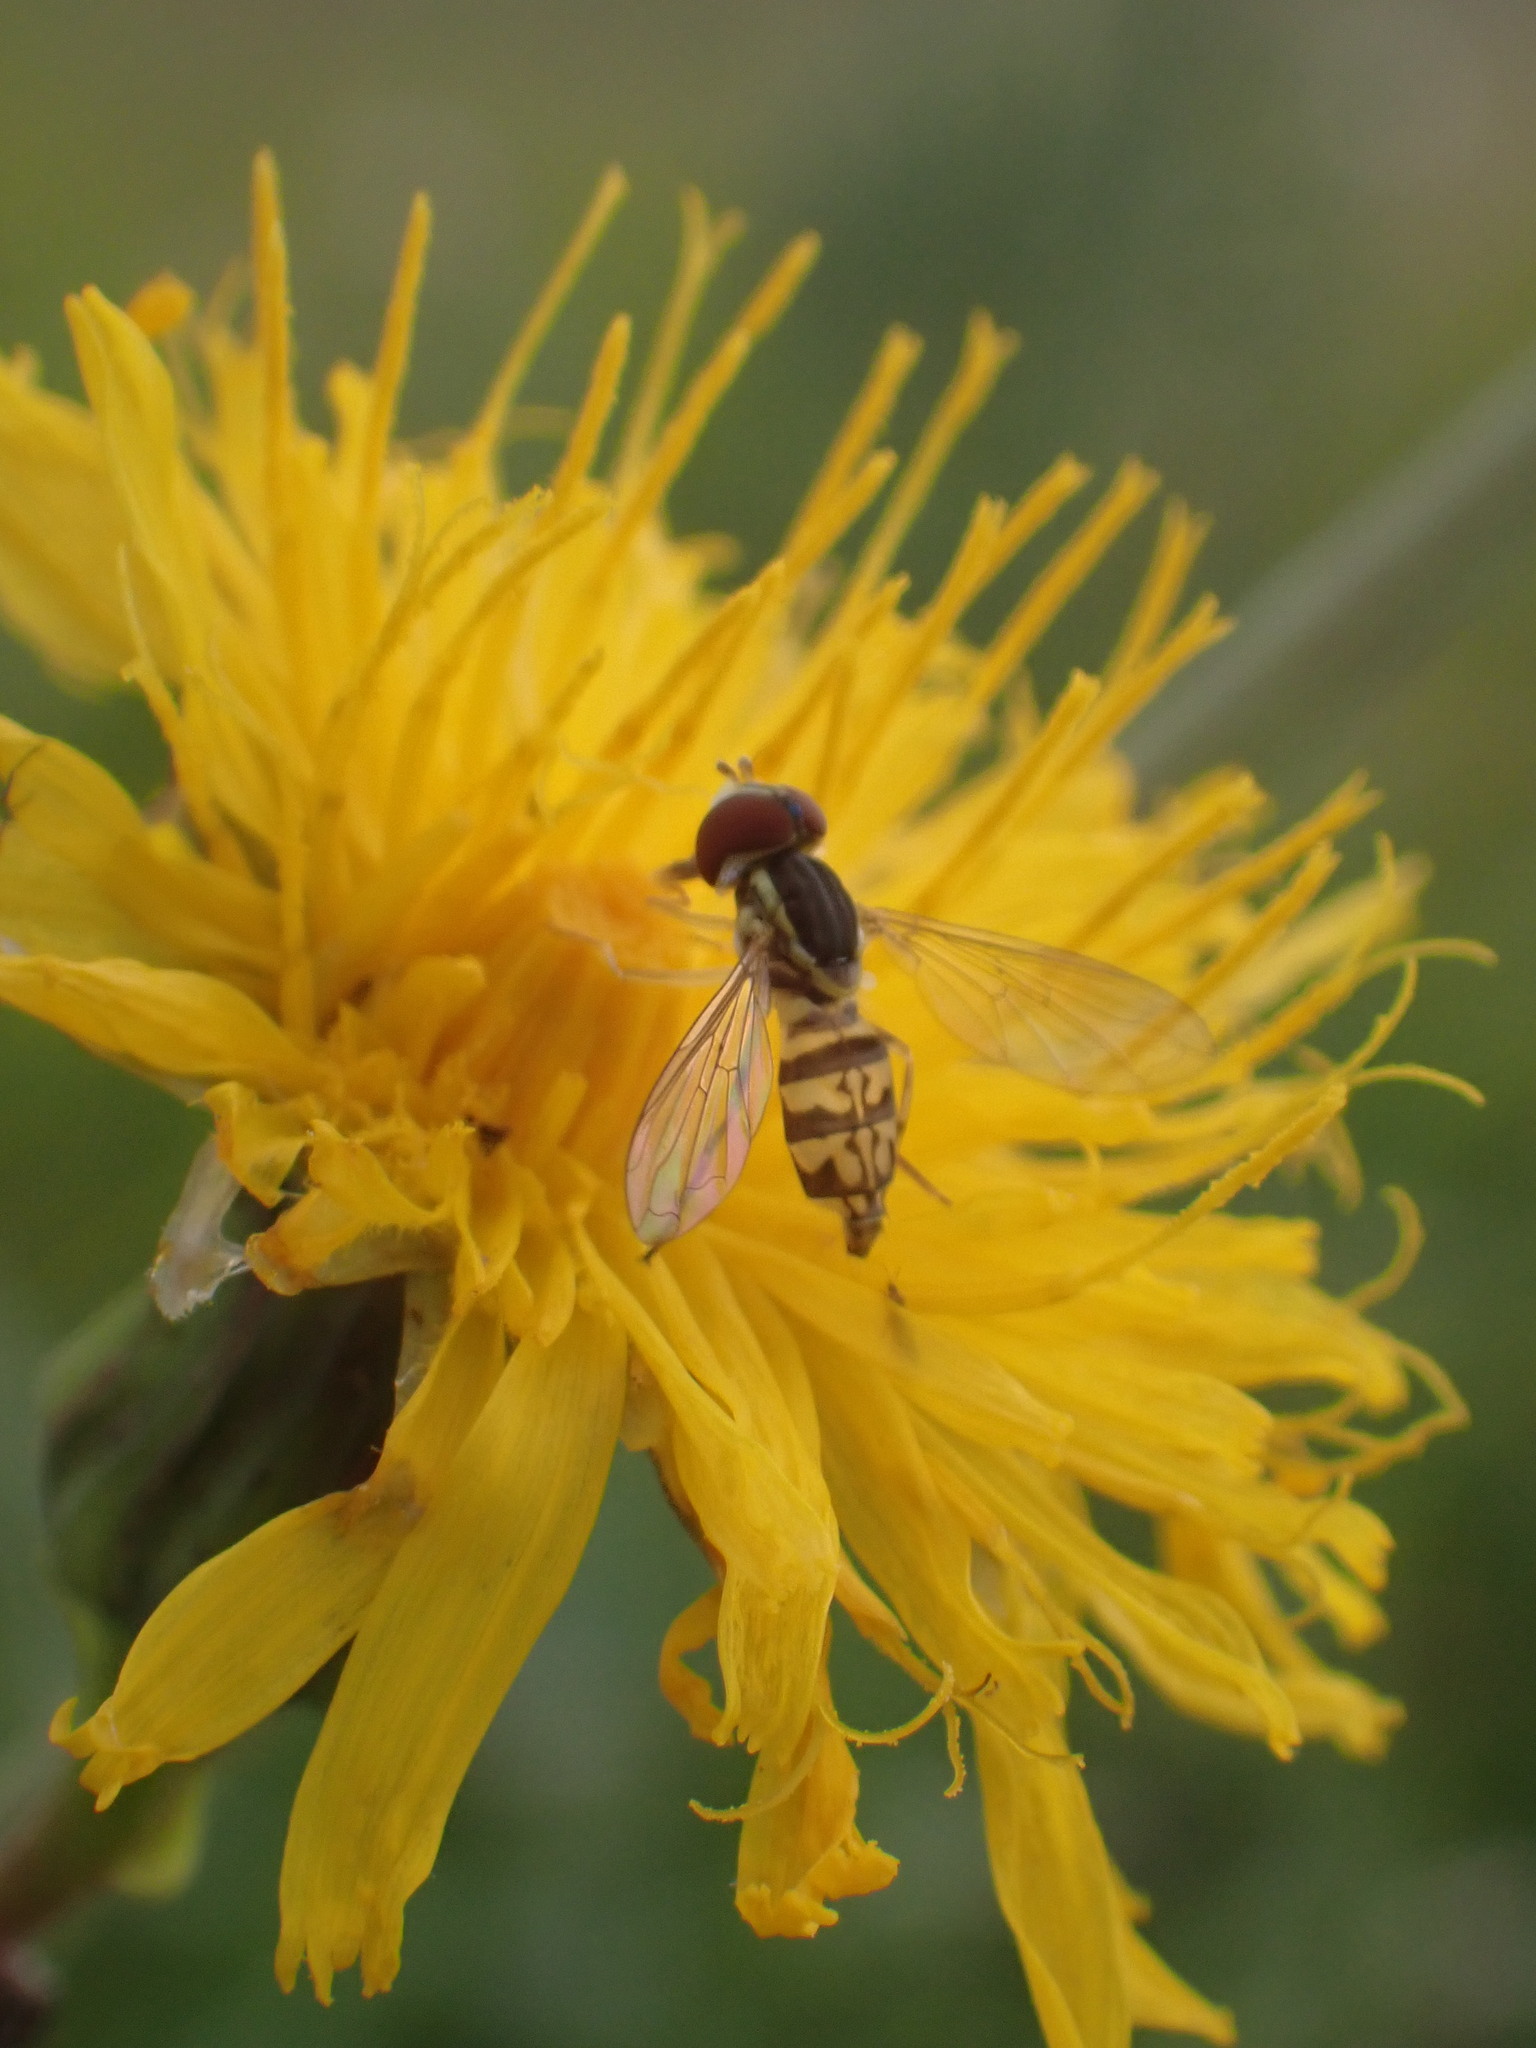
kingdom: Animalia
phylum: Arthropoda
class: Insecta
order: Diptera
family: Syrphidae
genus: Toxomerus
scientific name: Toxomerus geminatus
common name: Eastern calligrapher
